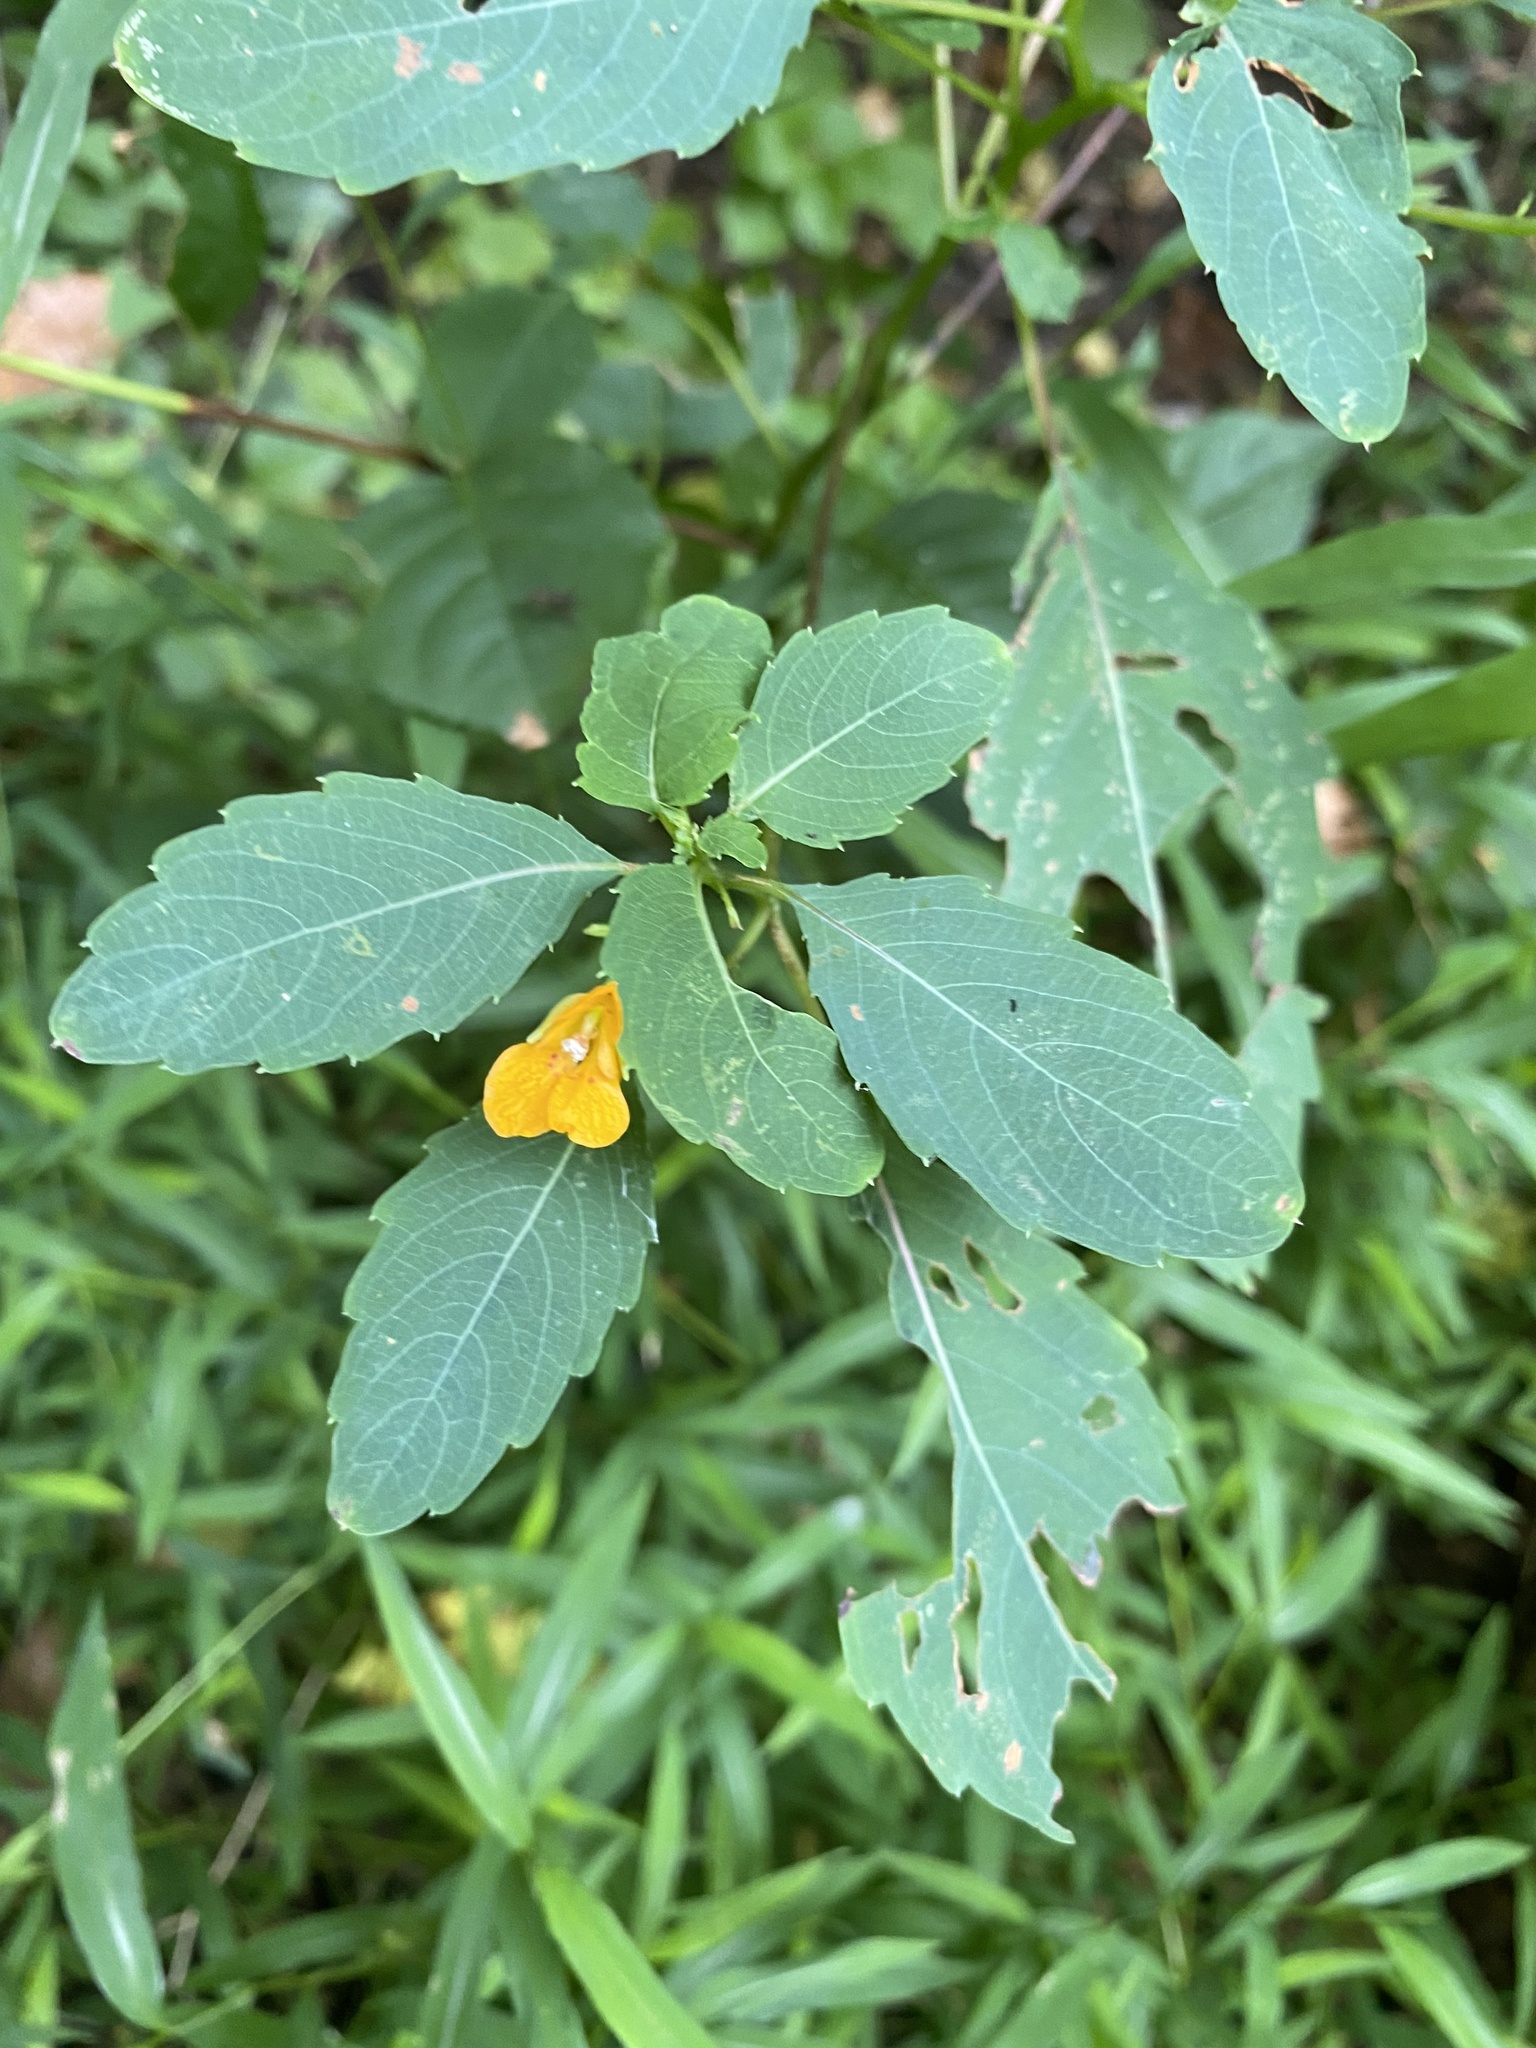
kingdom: Plantae
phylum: Tracheophyta
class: Magnoliopsida
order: Ericales
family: Balsaminaceae
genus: Impatiens
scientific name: Impatiens capensis
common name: Orange balsam
